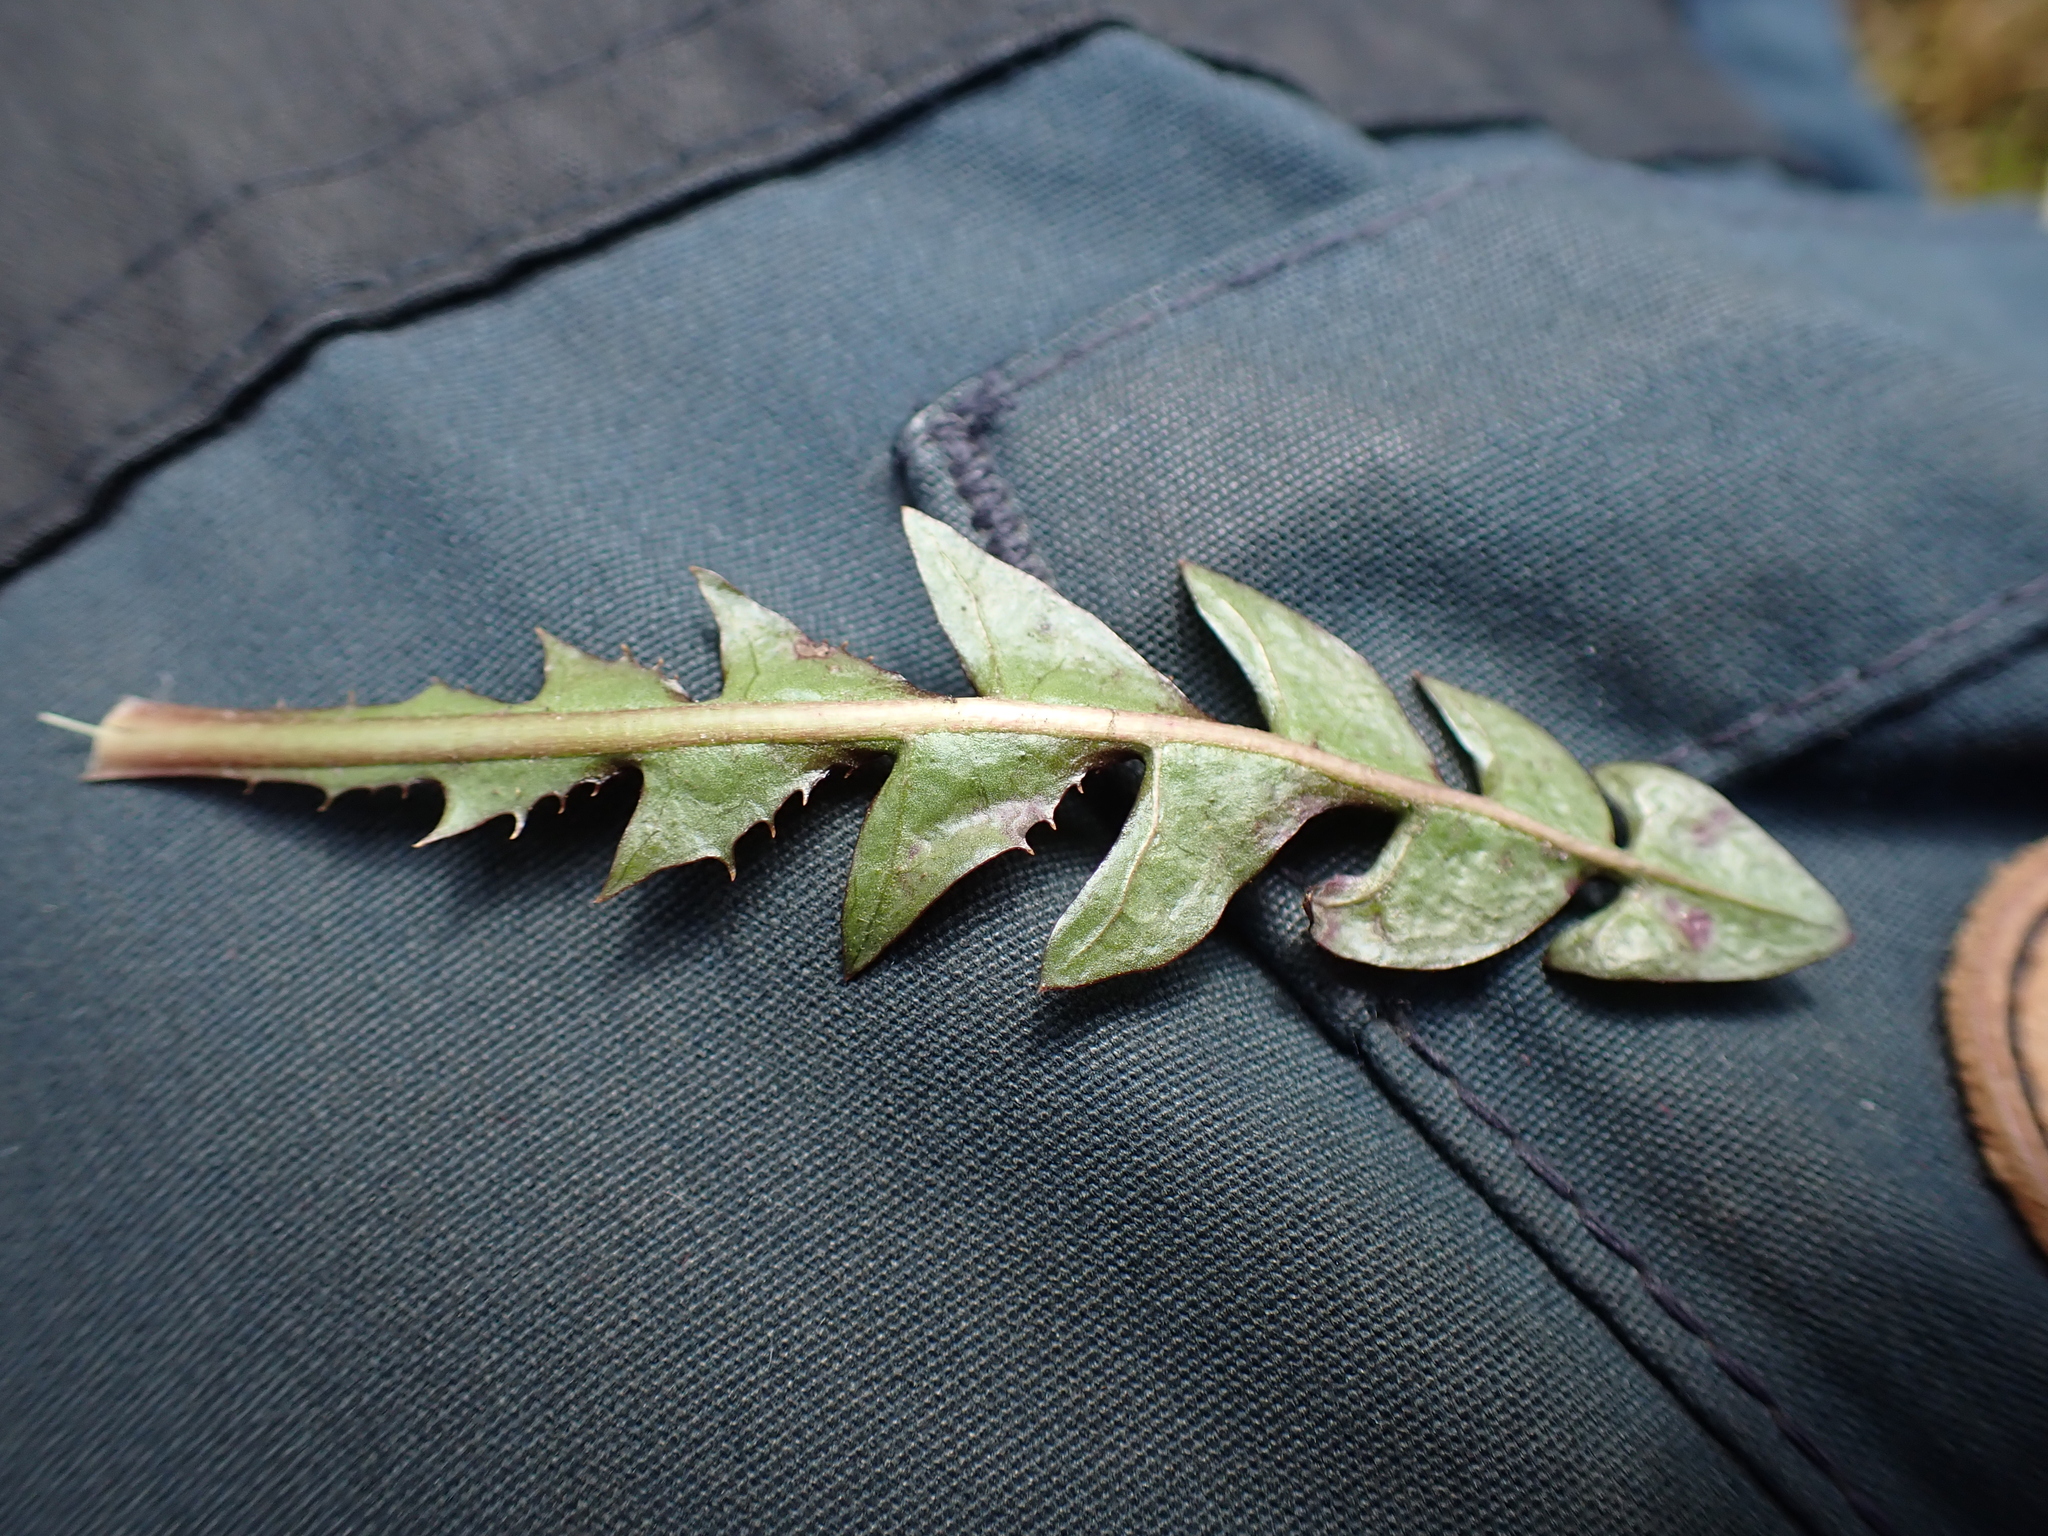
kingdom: Plantae
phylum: Tracheophyta
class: Magnoliopsida
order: Asterales
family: Asteraceae
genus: Taraxacum
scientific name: Taraxacum hamatum
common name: Hook-lobed dandelion
